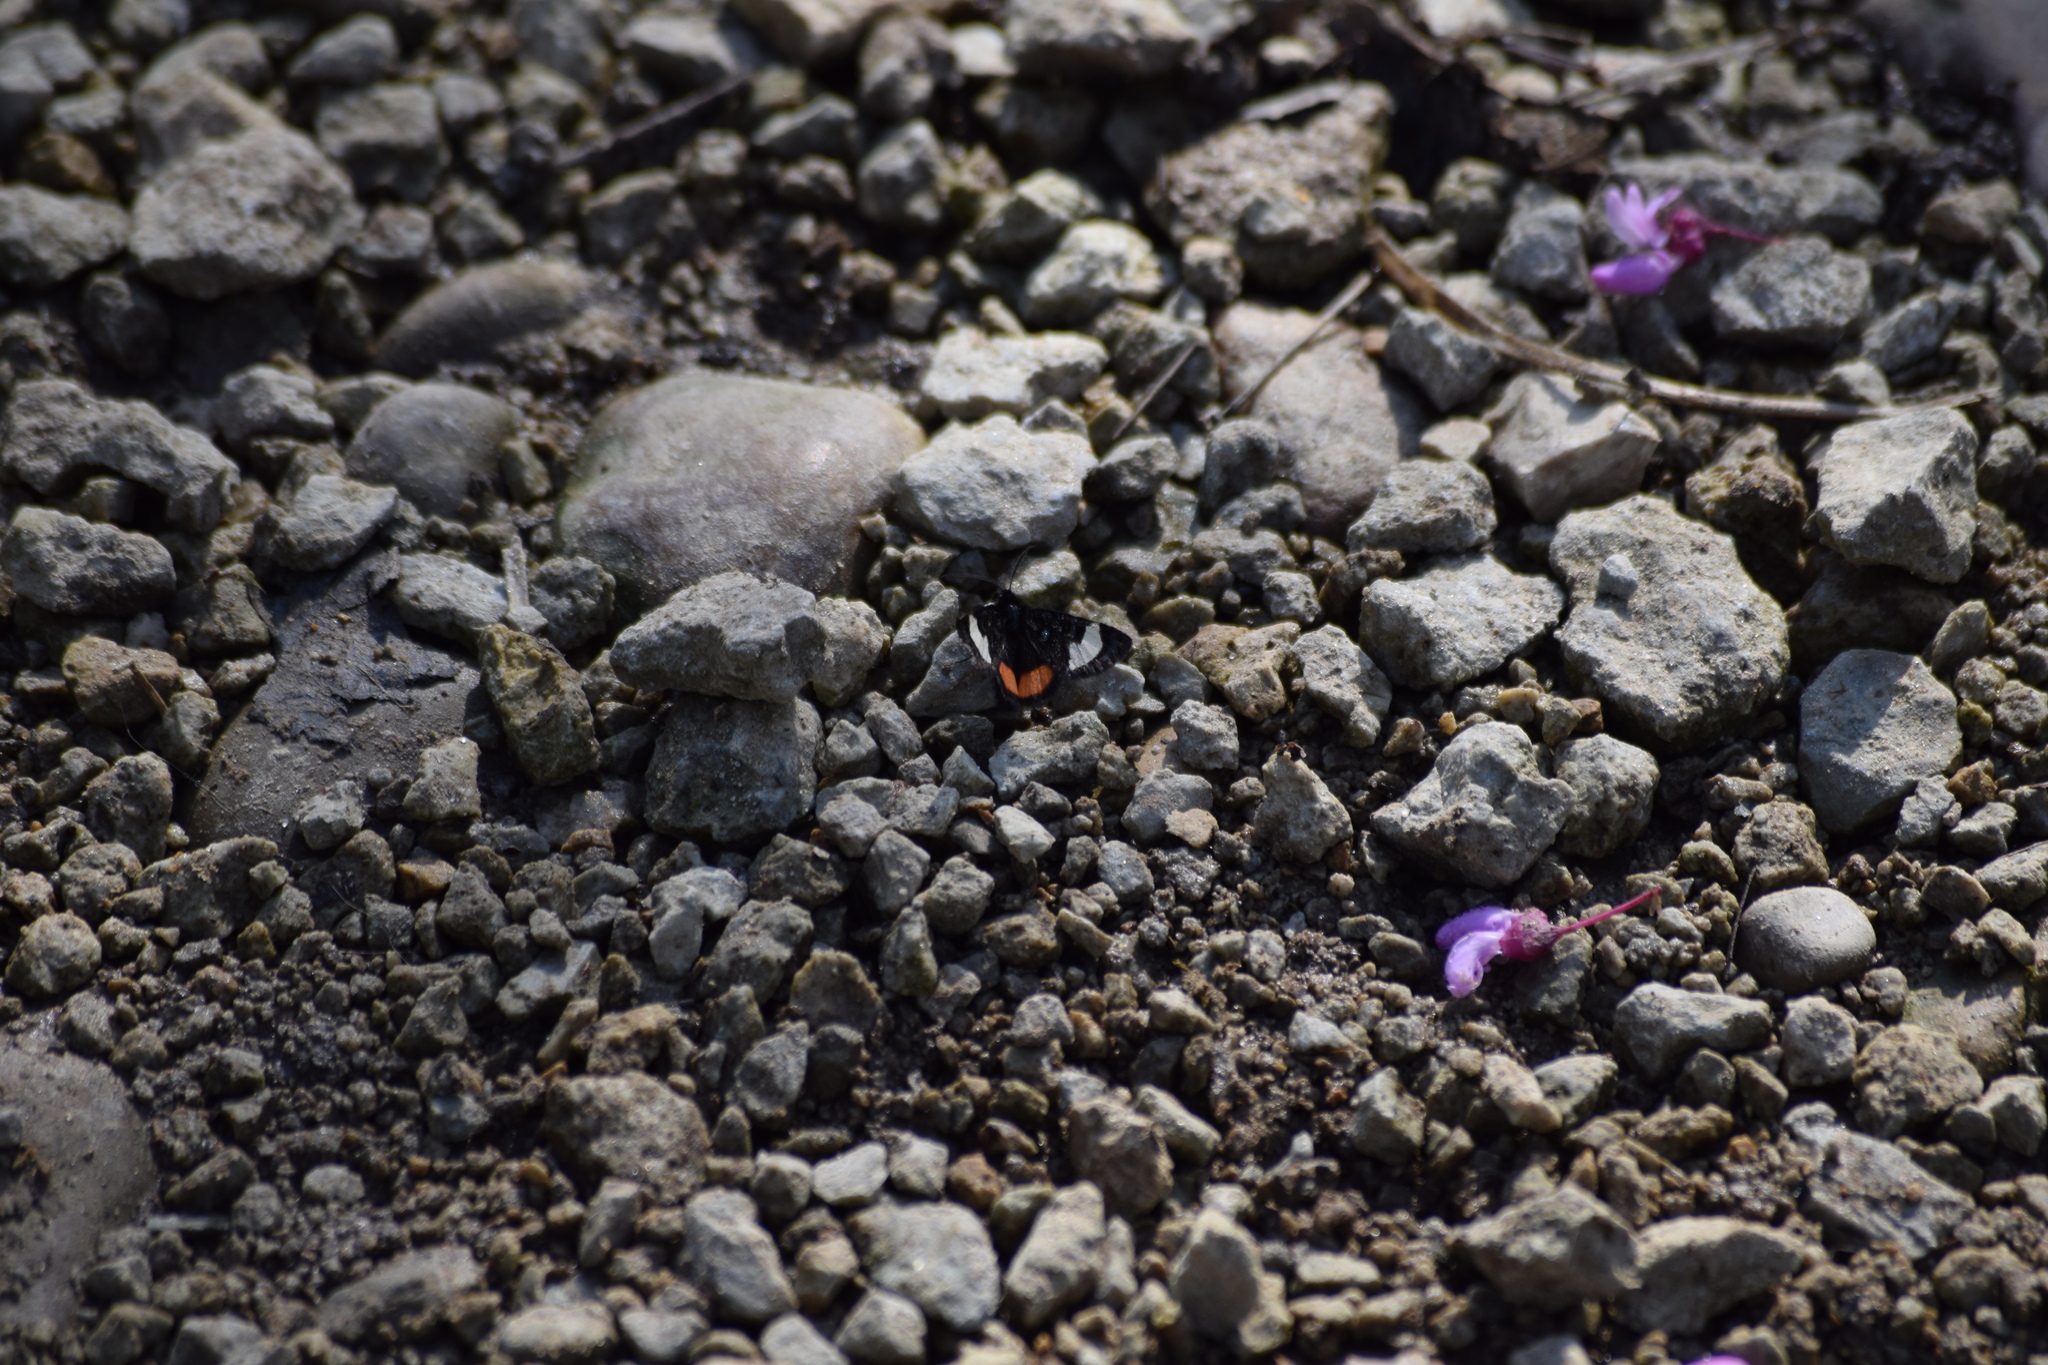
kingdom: Animalia
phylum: Arthropoda
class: Insecta
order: Lepidoptera
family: Noctuidae
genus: Psychomorpha
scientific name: Psychomorpha epimenis
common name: Grapevine epimenis moth
